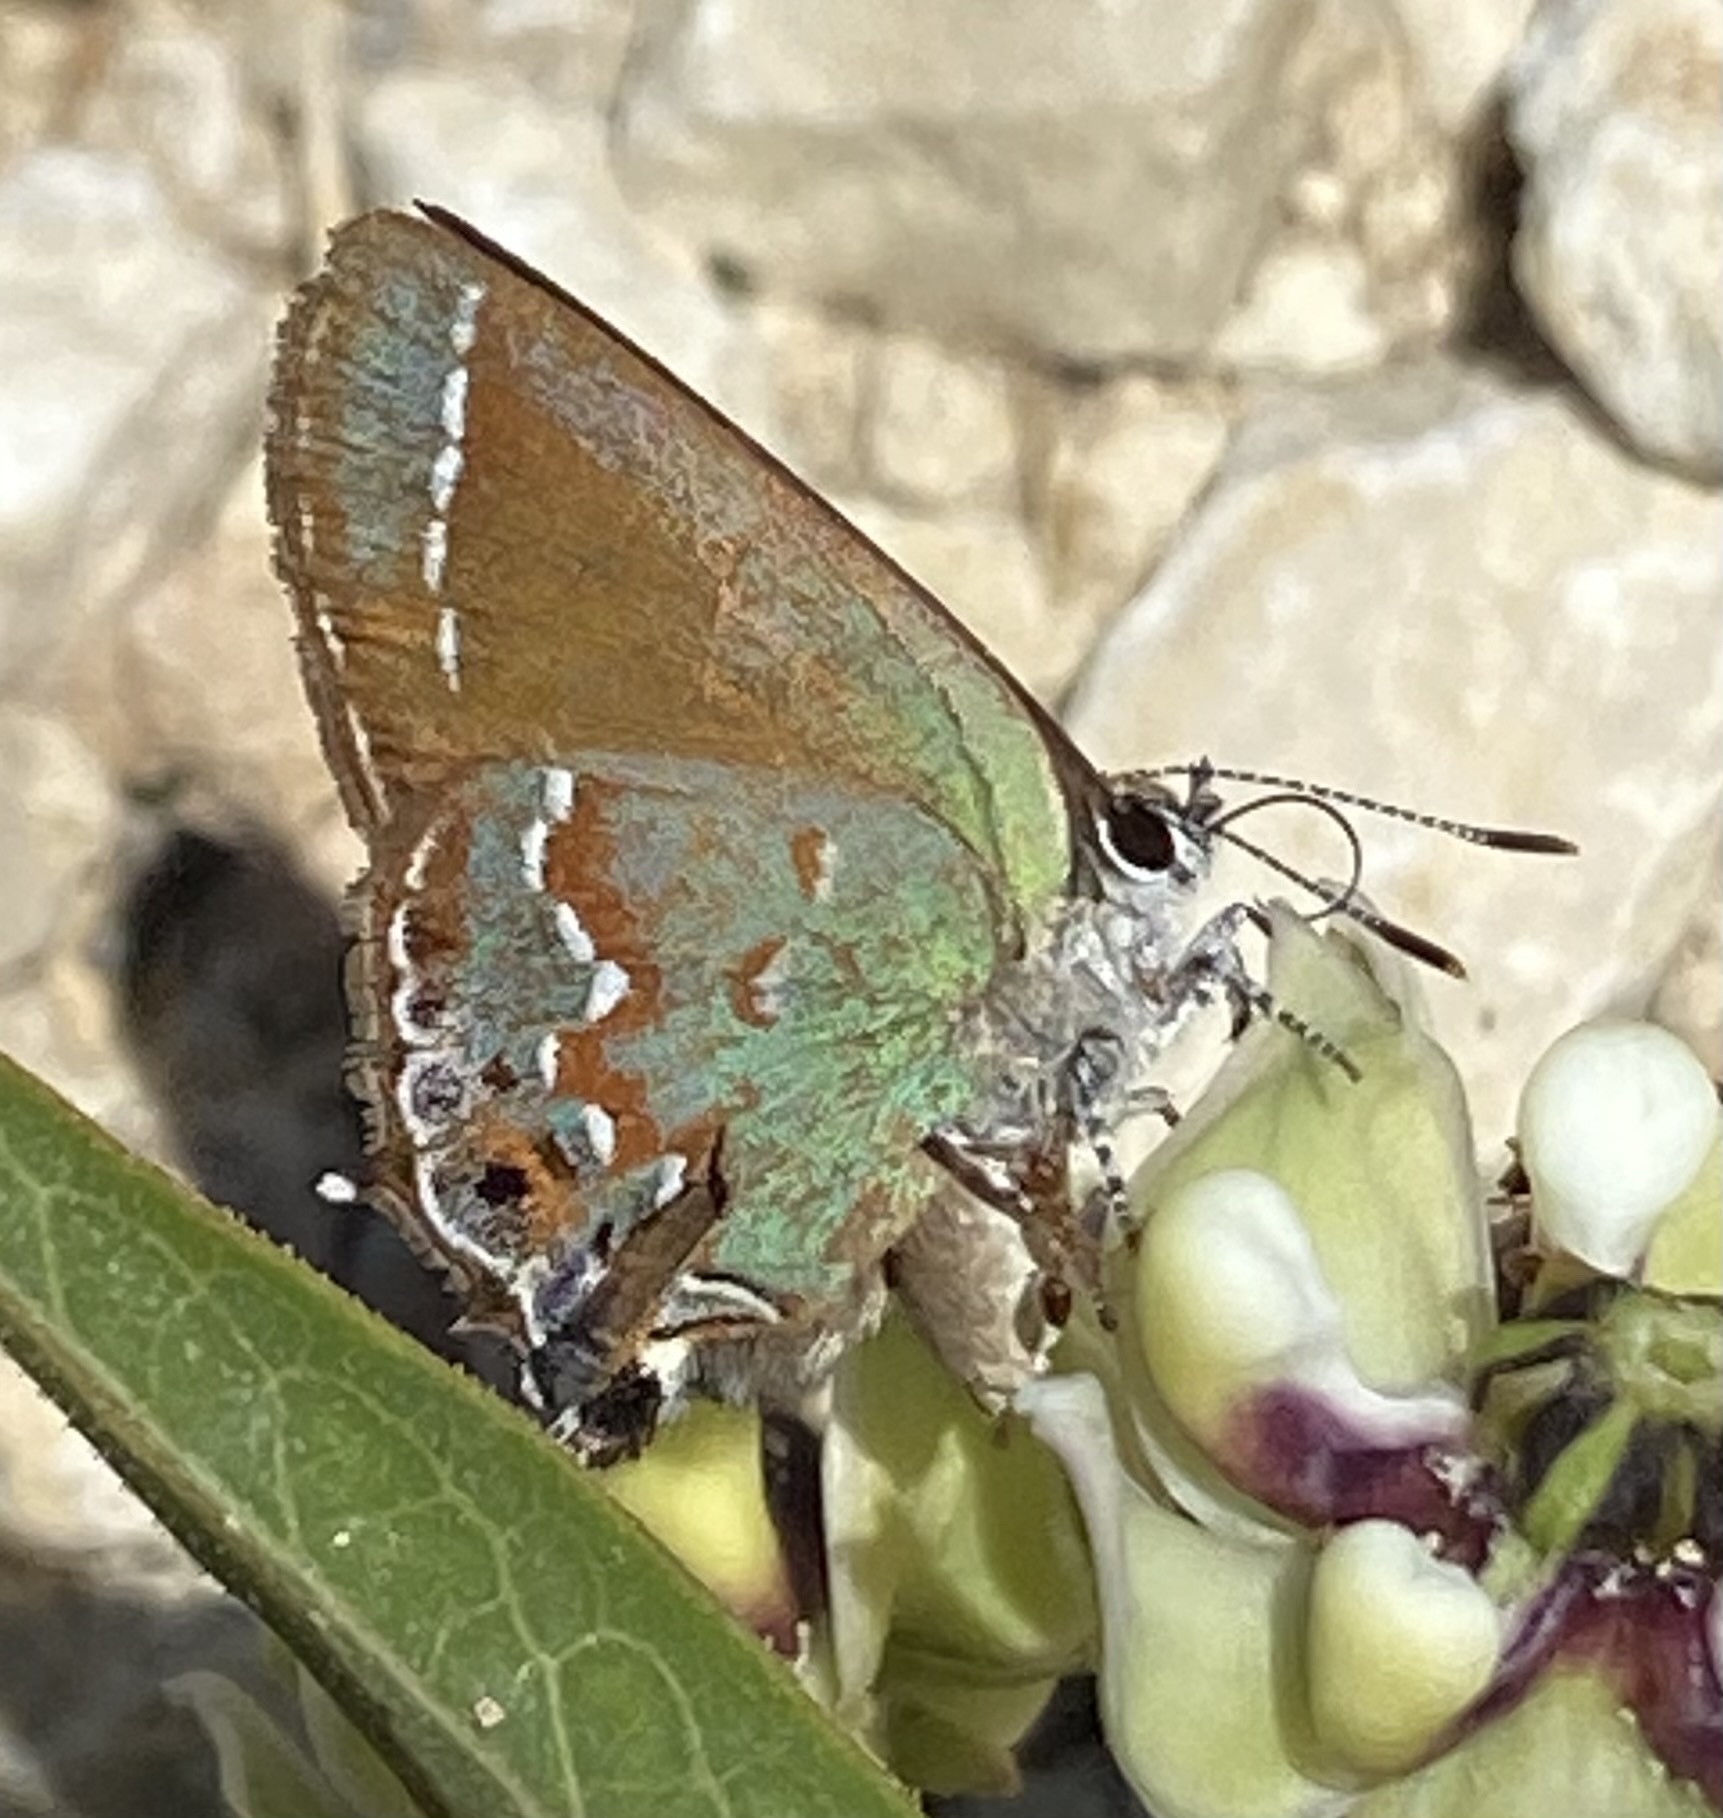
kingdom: Animalia
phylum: Arthropoda
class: Insecta
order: Lepidoptera
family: Lycaenidae
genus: Mitoura
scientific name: Mitoura gryneus
